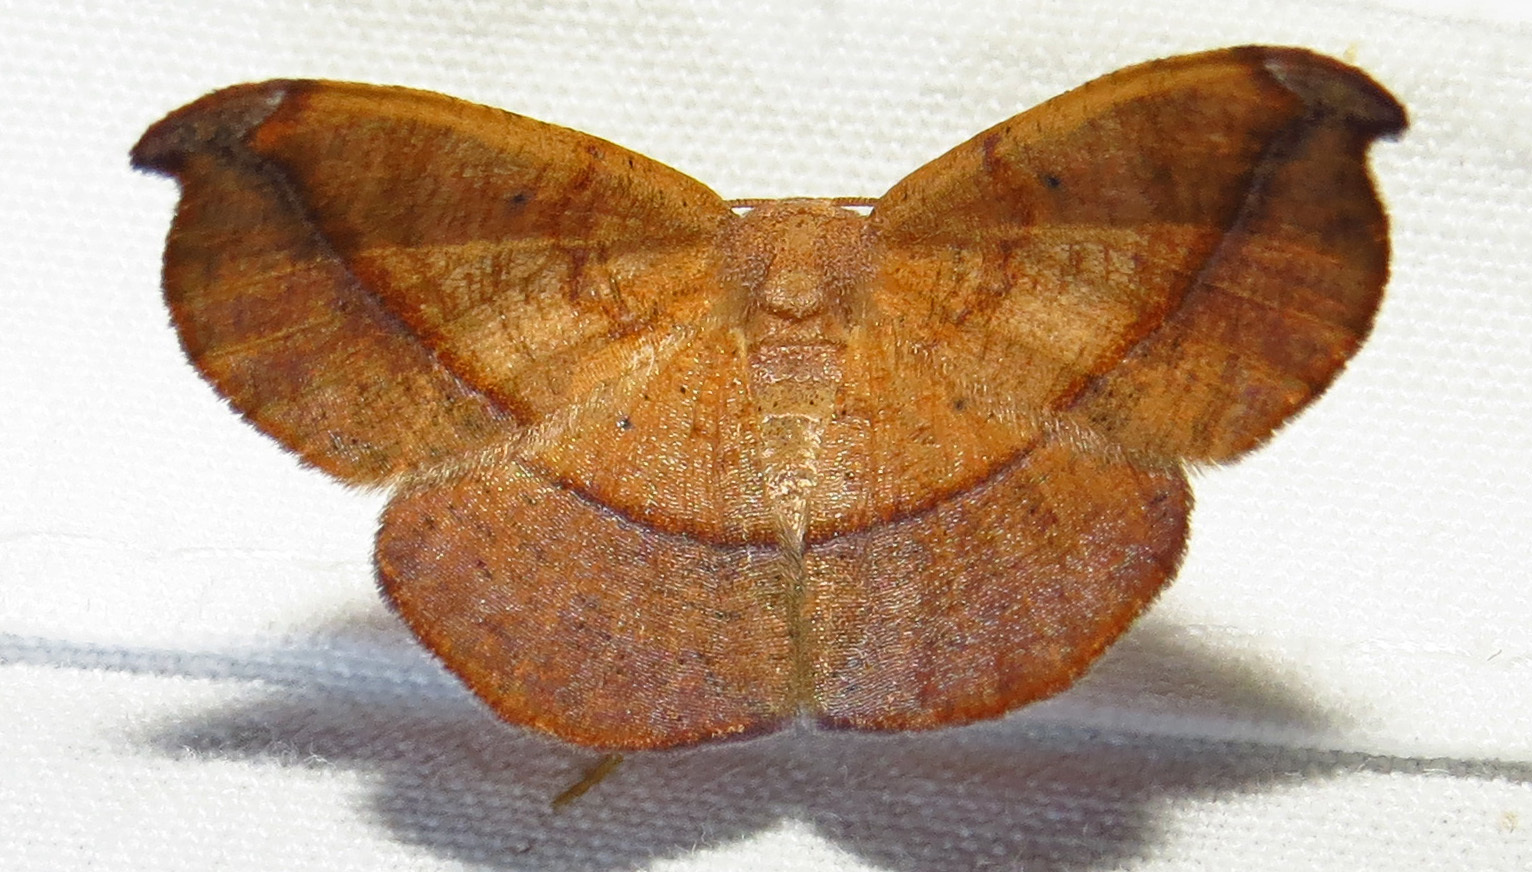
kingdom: Animalia
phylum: Arthropoda
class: Insecta
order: Lepidoptera
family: Geometridae
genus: Patalene
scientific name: Patalene olyzonaria
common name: Juniper geometer moth
